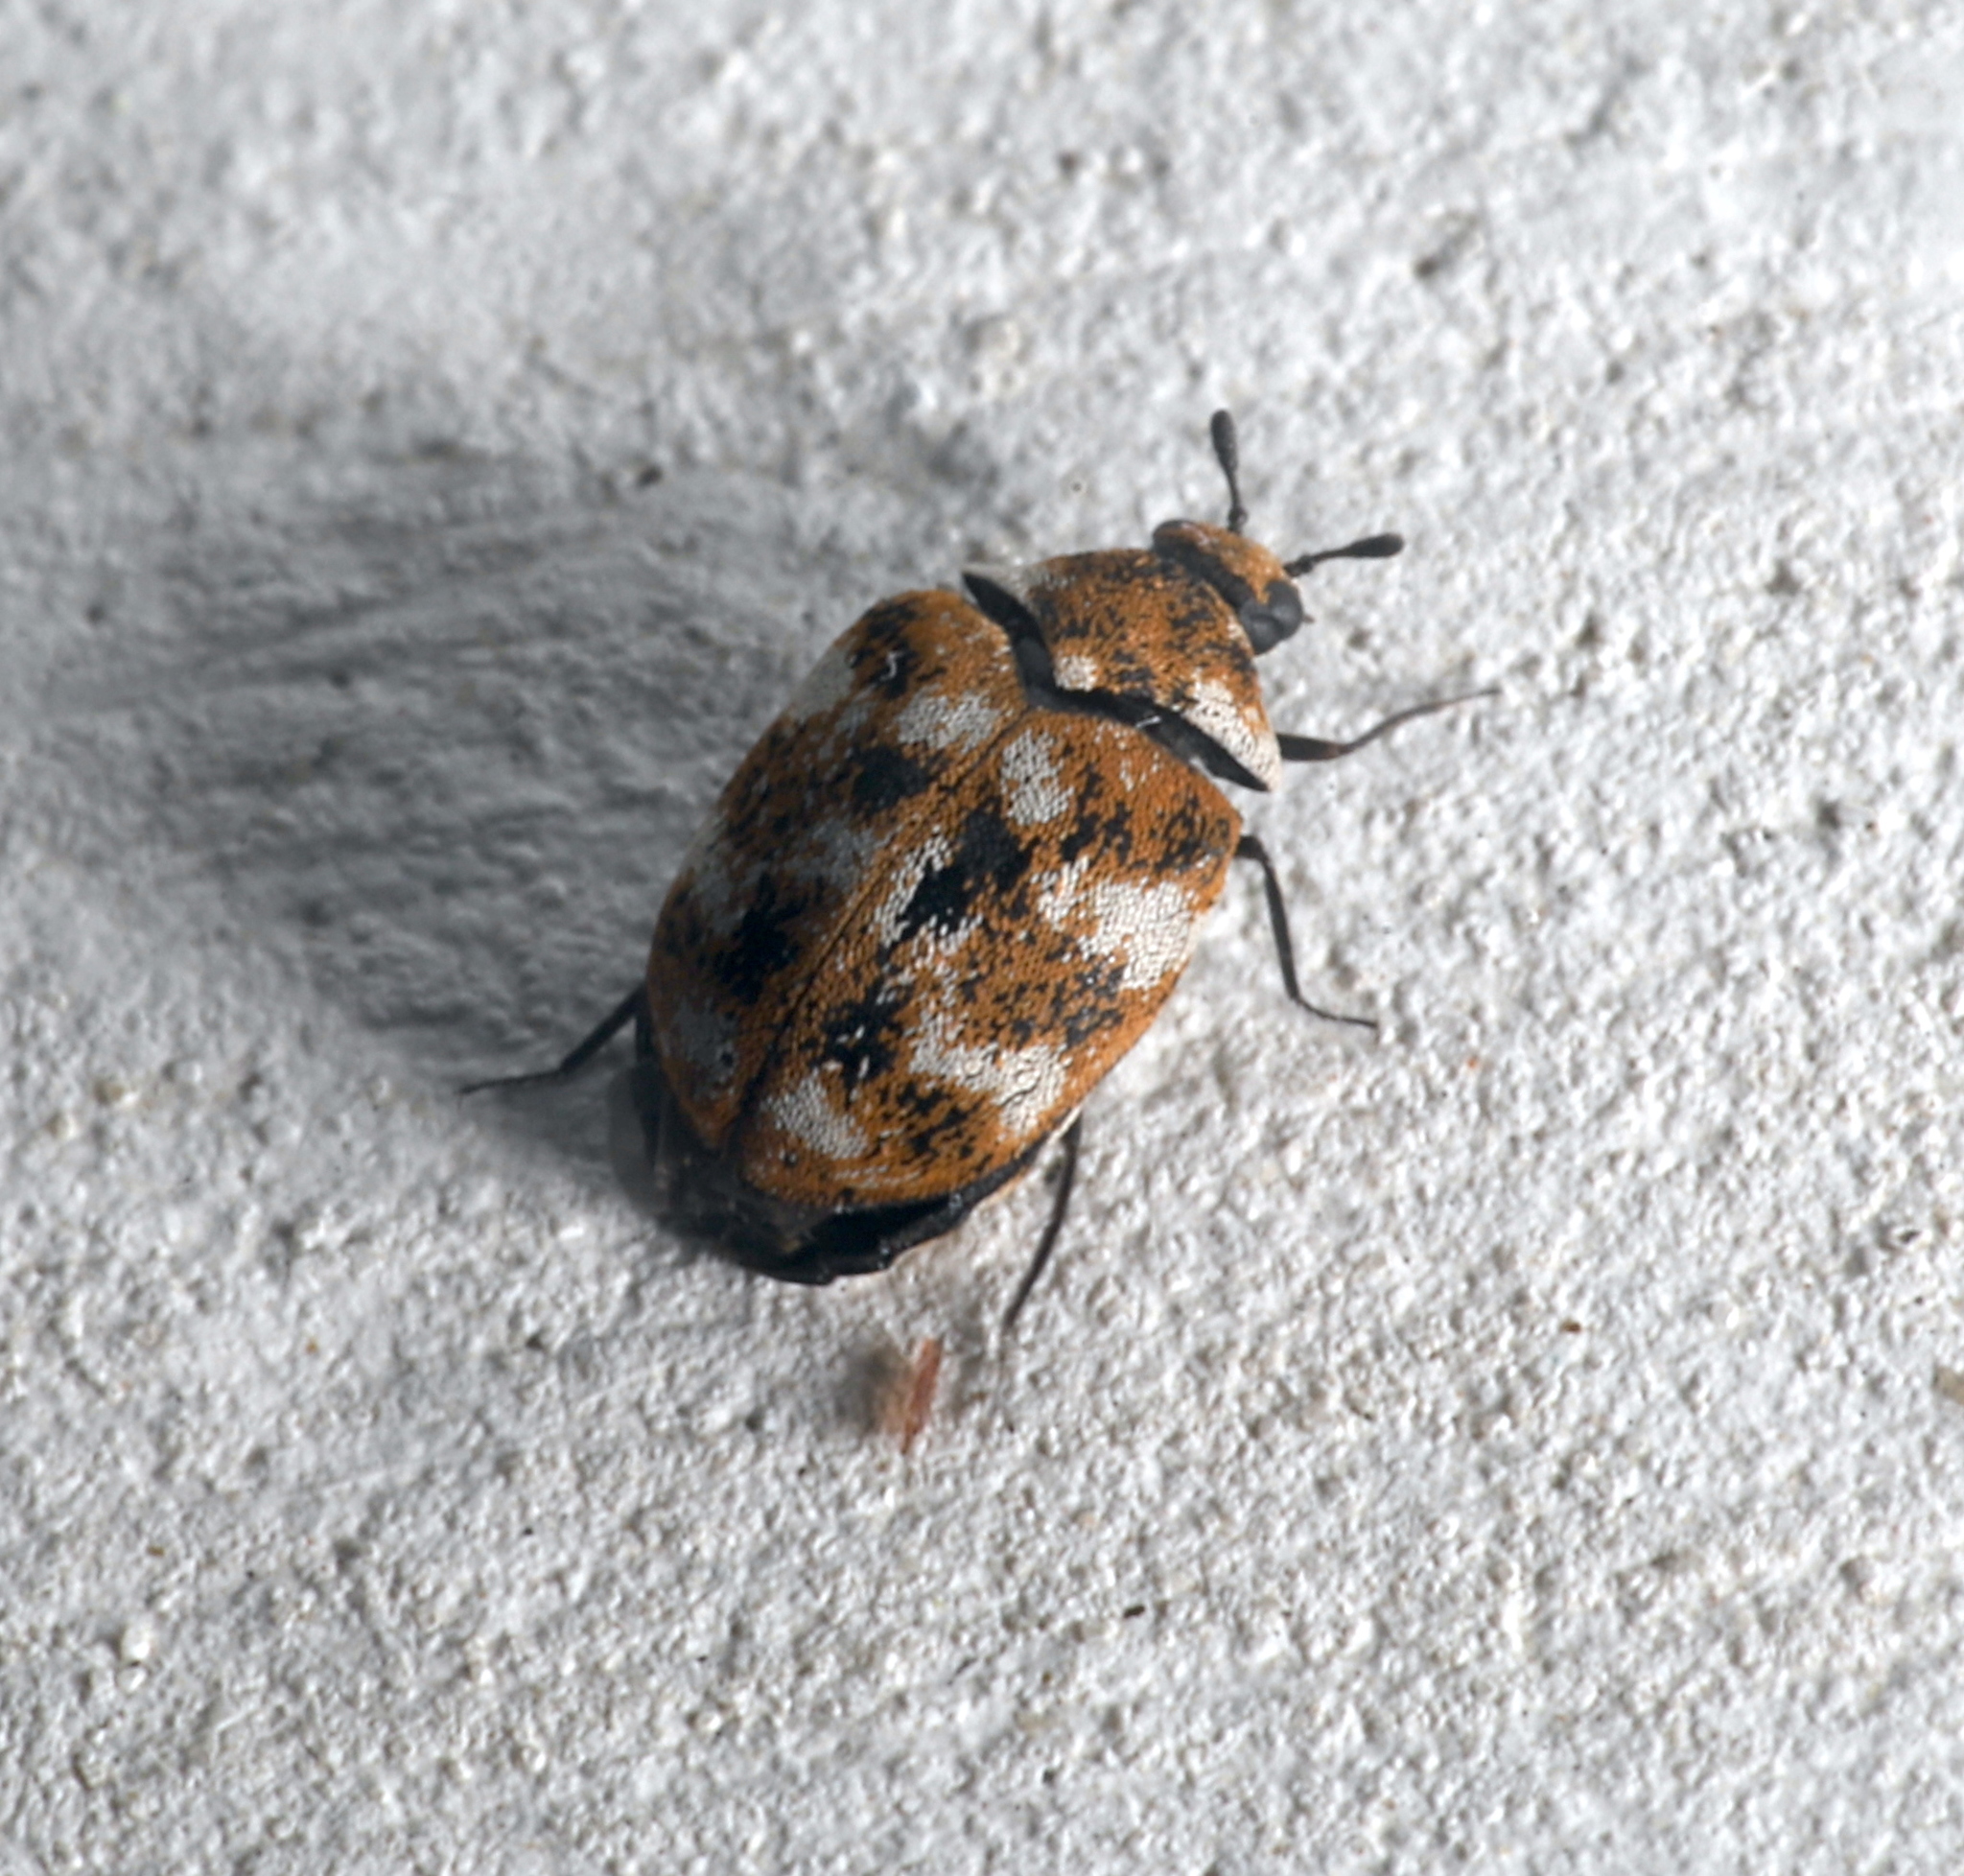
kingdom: Animalia
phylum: Arthropoda
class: Insecta
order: Coleoptera
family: Dermestidae
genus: Anthrenus
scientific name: Anthrenus verbasci
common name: Varied carpet beetle
